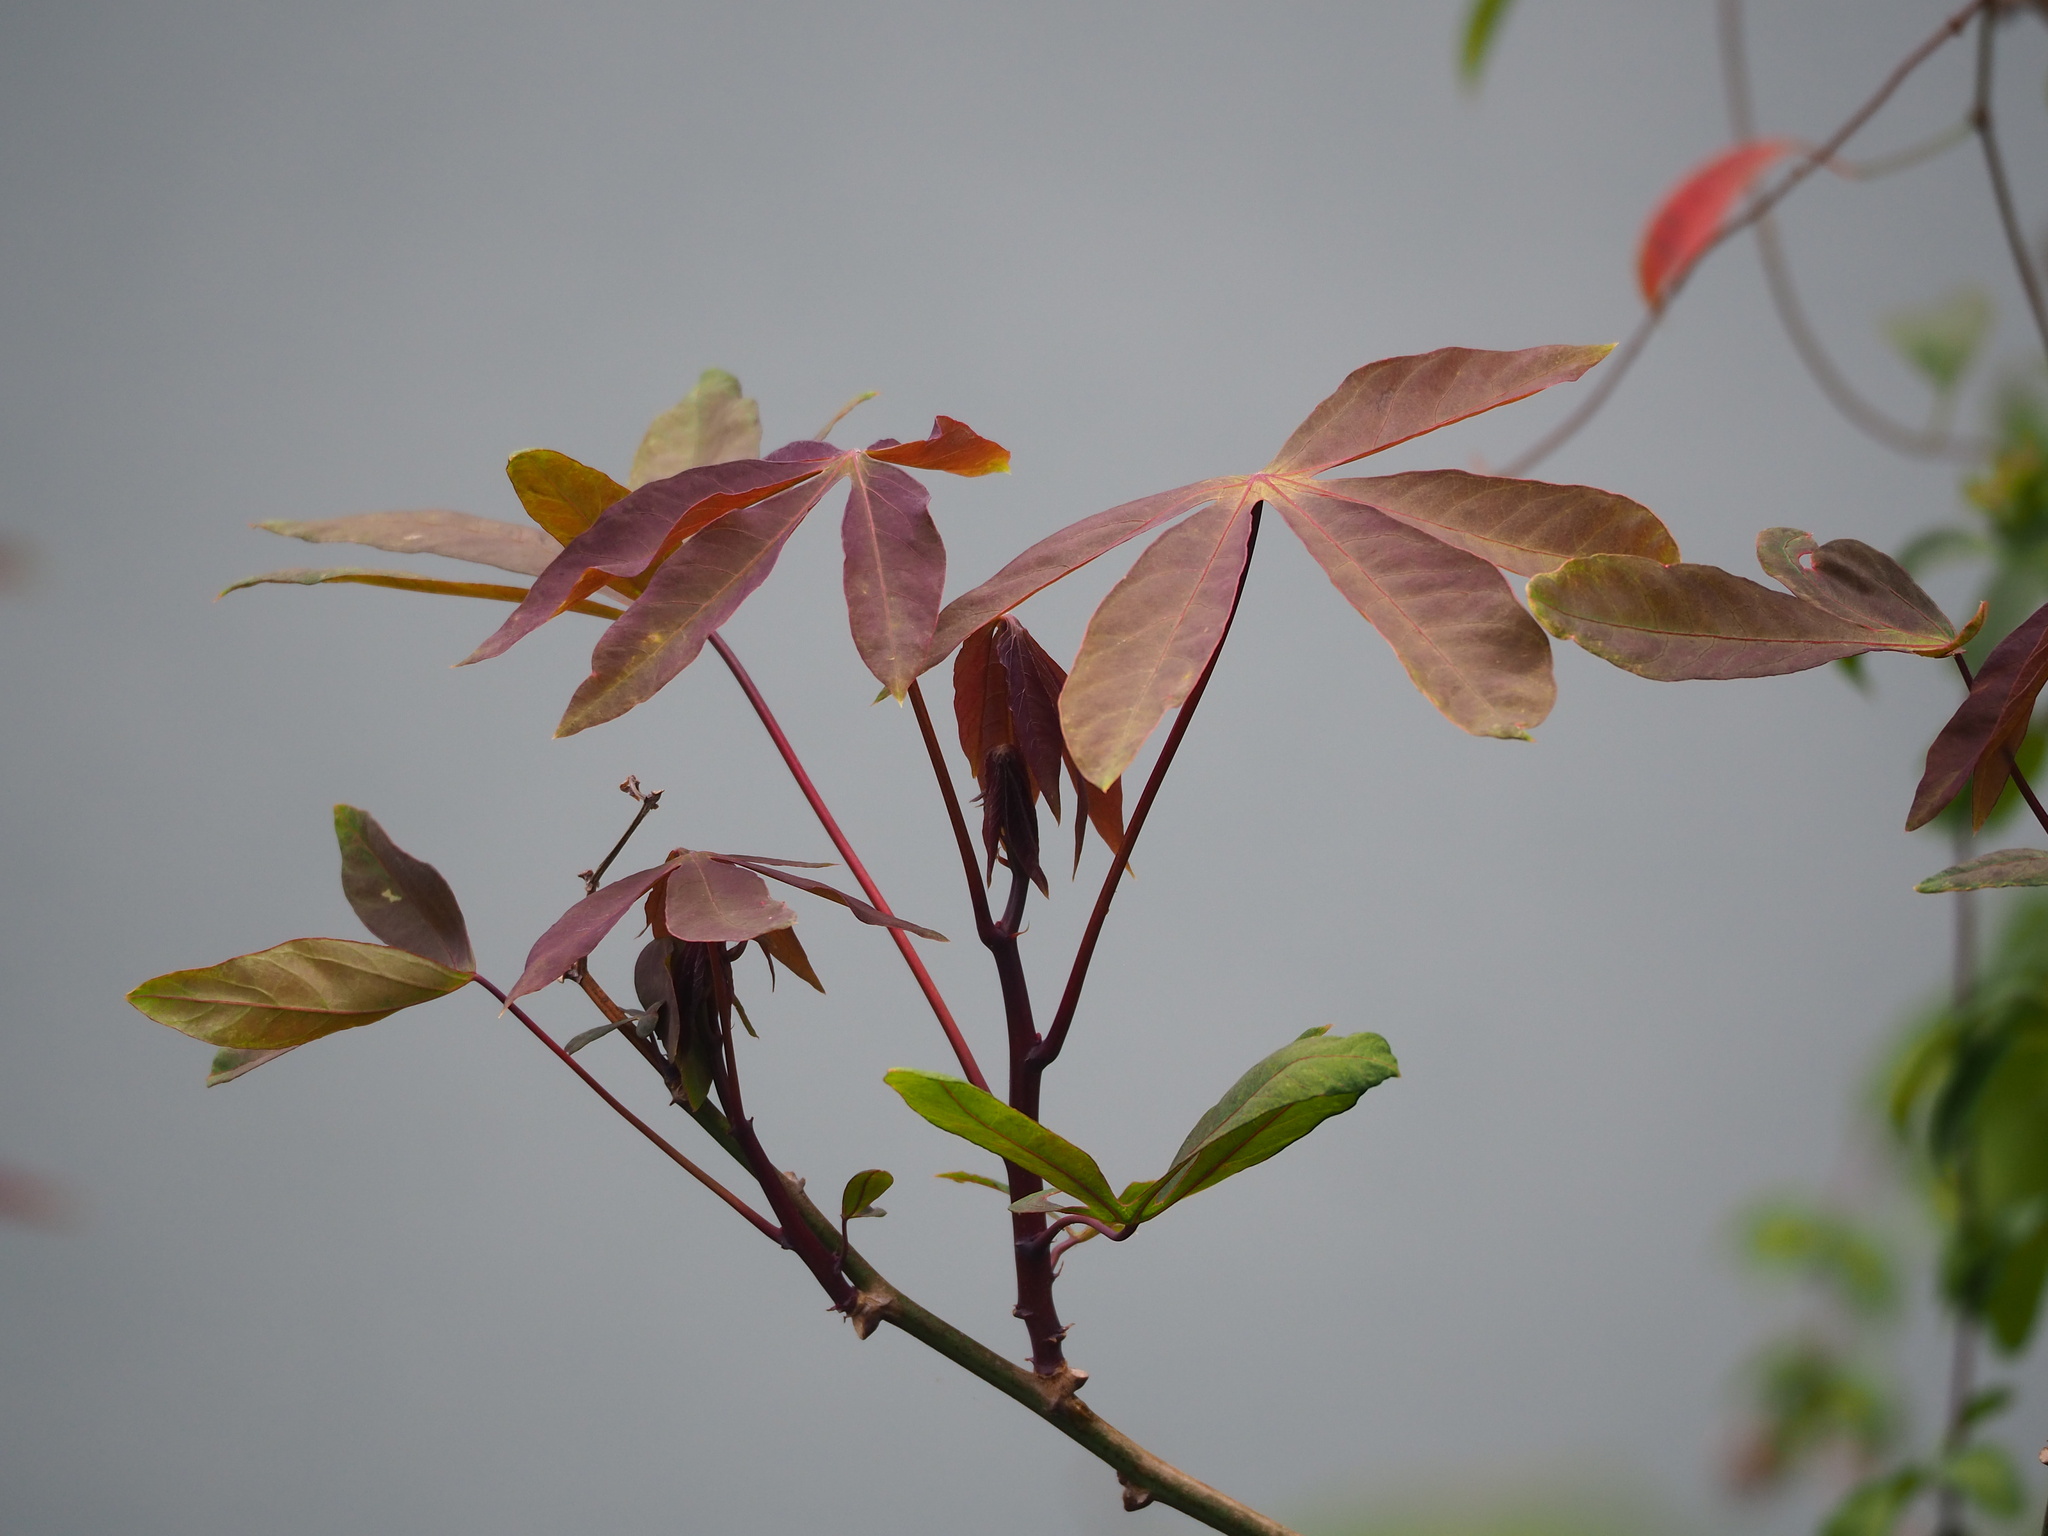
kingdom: Plantae
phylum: Tracheophyta
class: Magnoliopsida
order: Malpighiales
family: Euphorbiaceae
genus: Manihot
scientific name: Manihot esculenta
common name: Cassava
